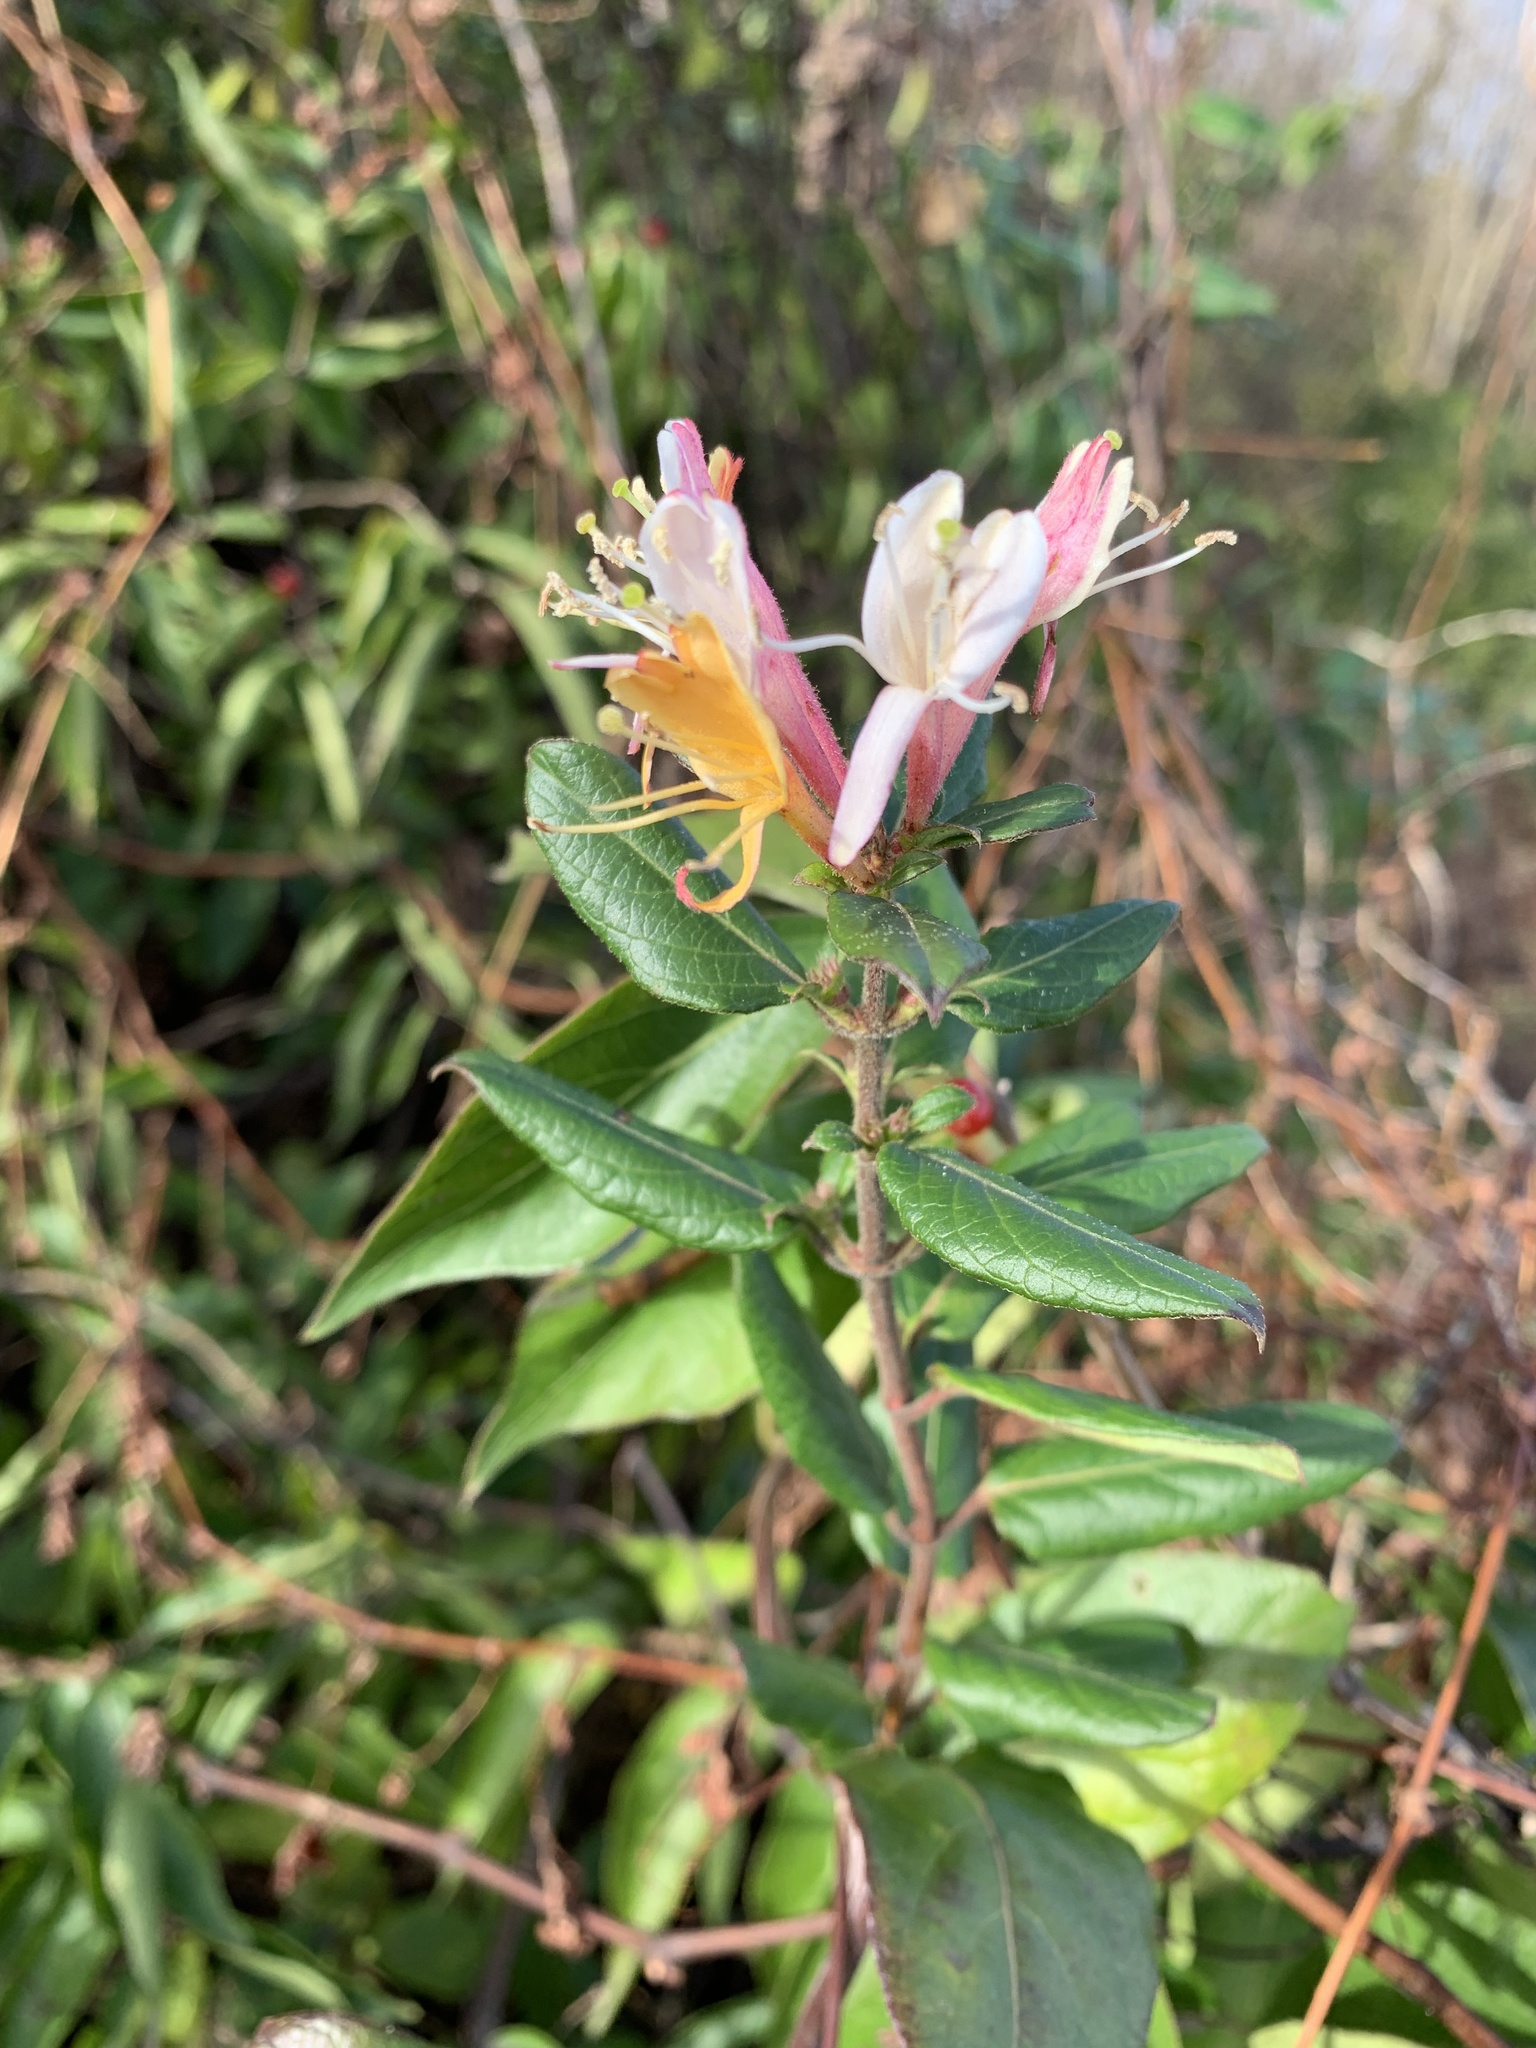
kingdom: Plantae
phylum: Tracheophyta
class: Magnoliopsida
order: Dipsacales
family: Caprifoliaceae
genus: Lonicera
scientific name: Lonicera japonica
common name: Japanese honeysuckle
